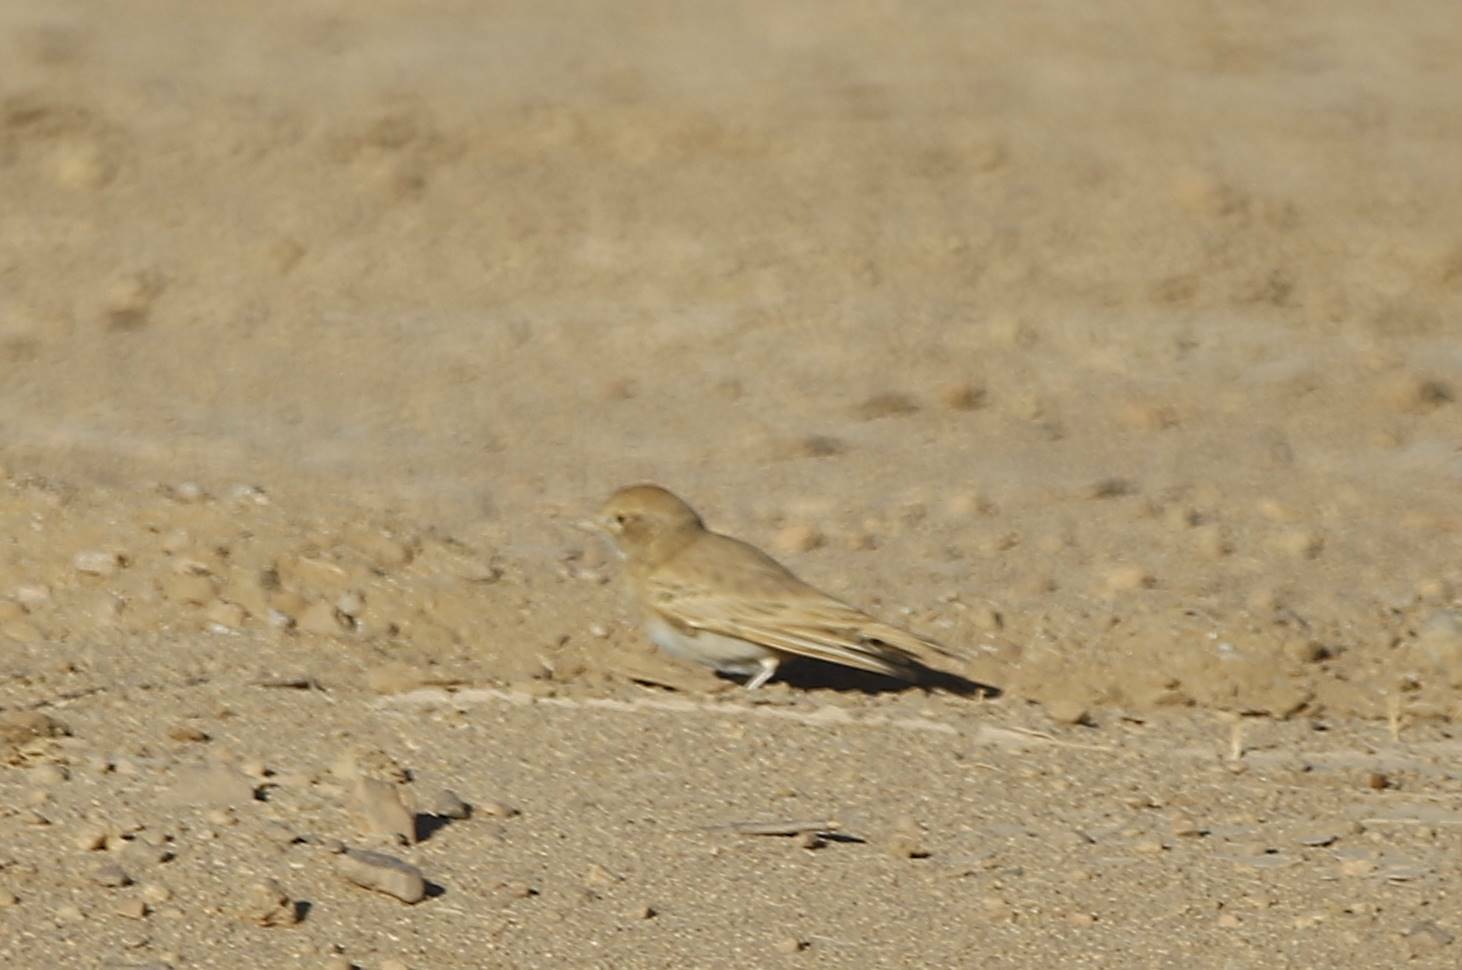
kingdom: Animalia
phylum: Chordata
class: Aves
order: Passeriformes
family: Alaudidae
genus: Ammomanes
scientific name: Ammomanes cinctura
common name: Bar-tailed lark
